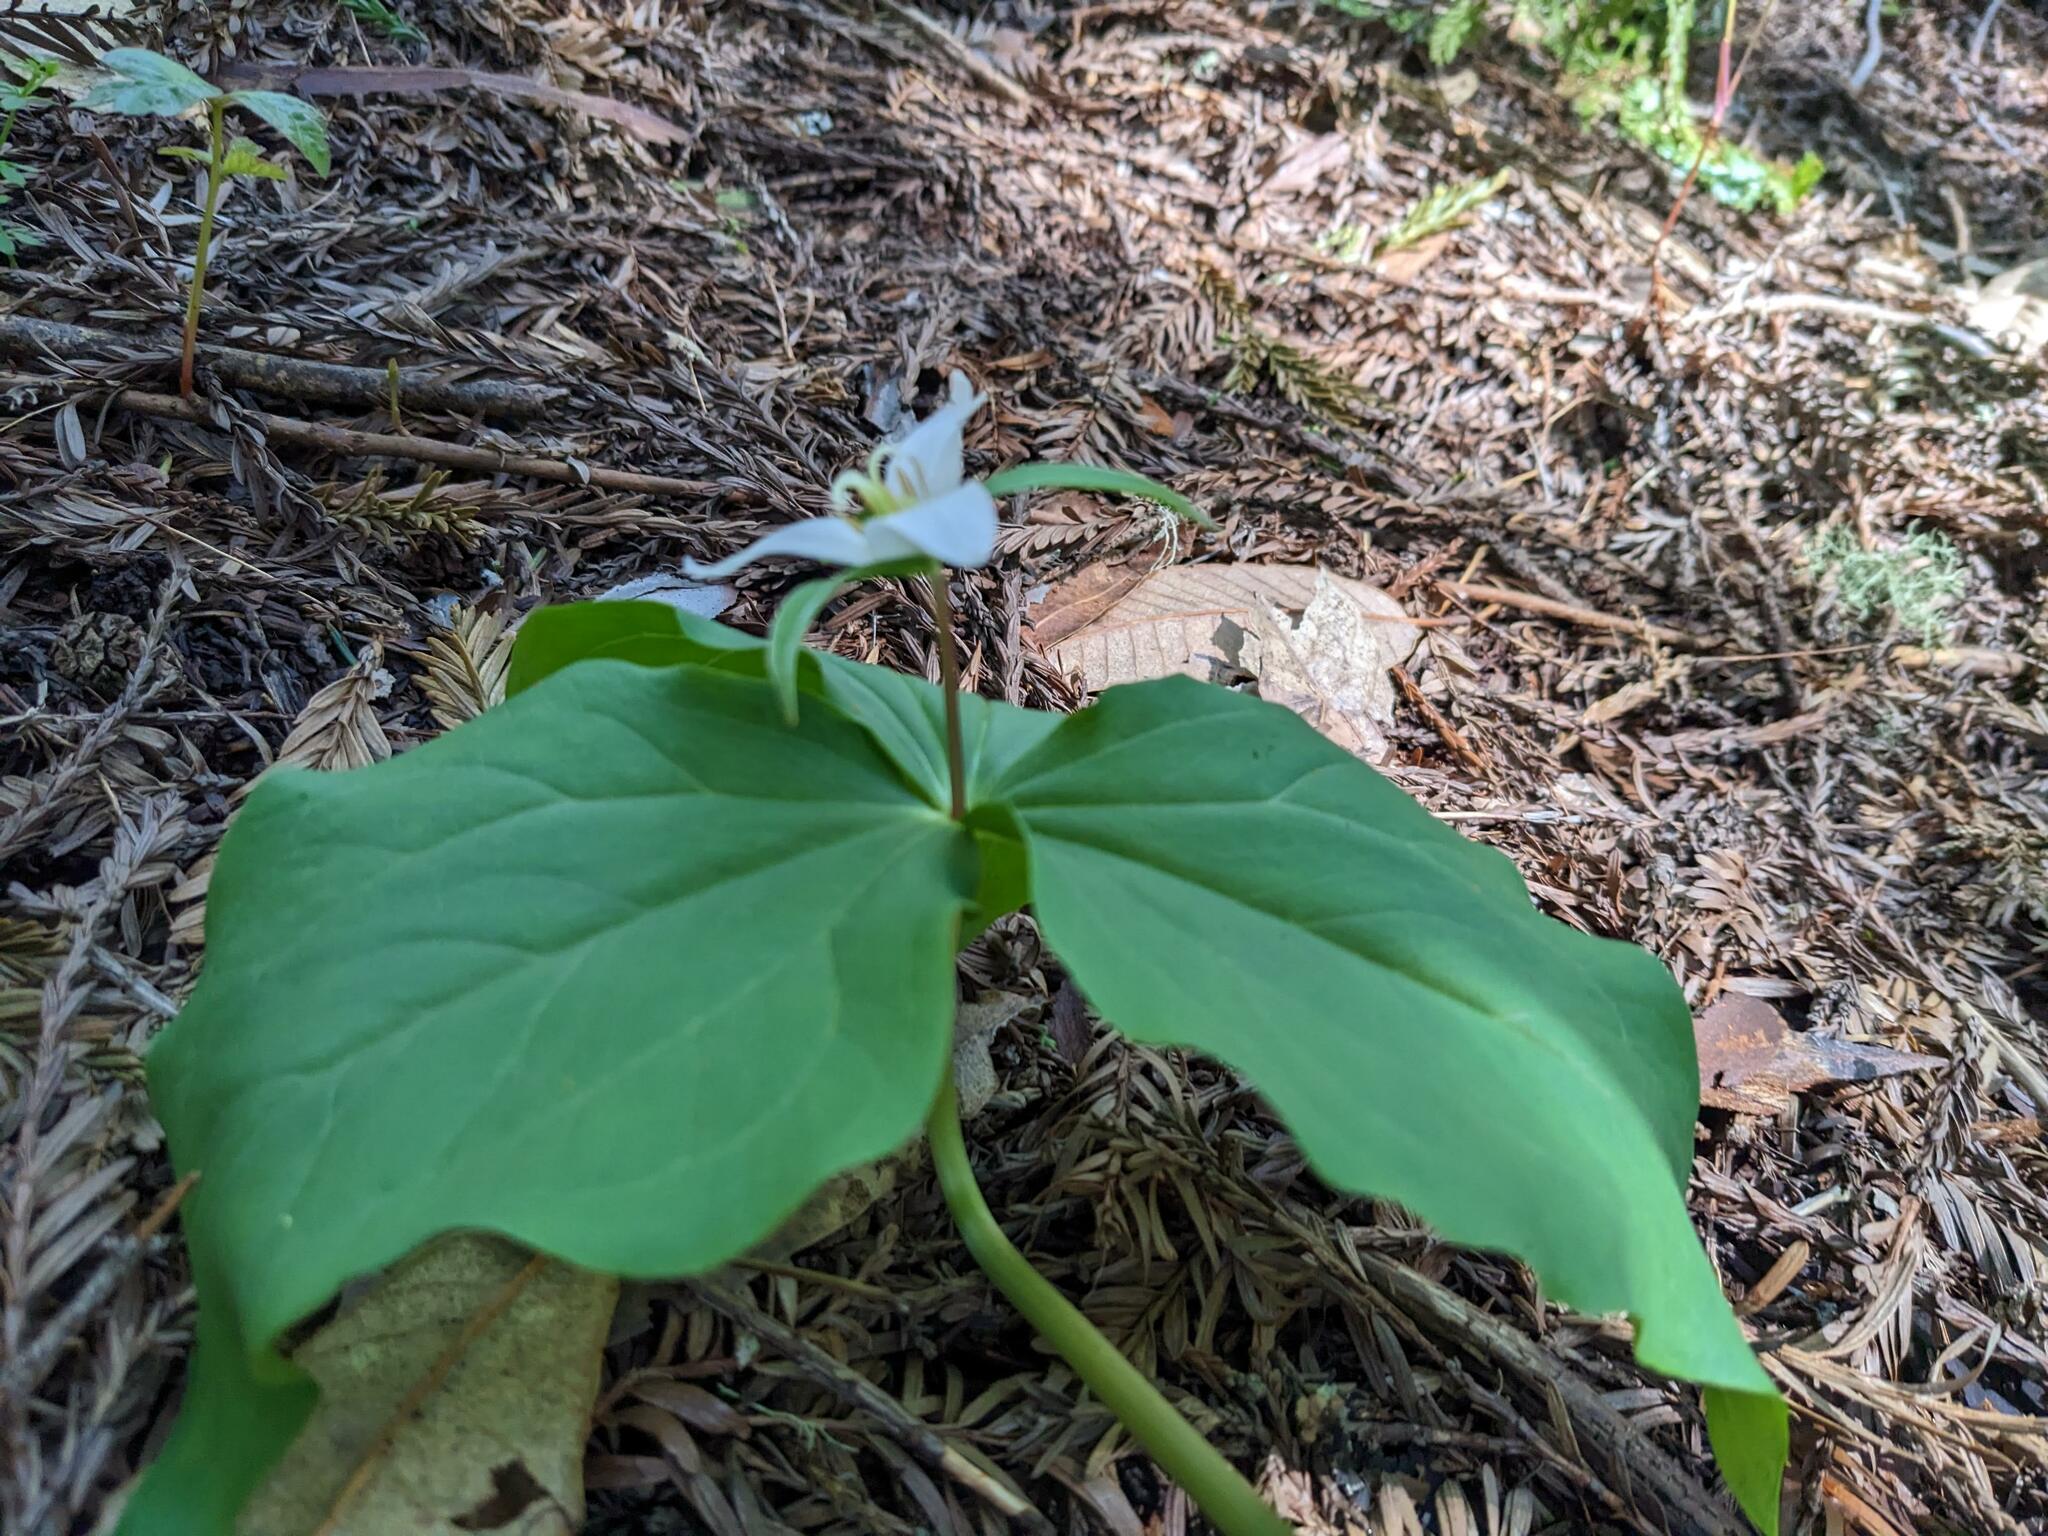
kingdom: Plantae
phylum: Tracheophyta
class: Liliopsida
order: Liliales
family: Melanthiaceae
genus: Trillium
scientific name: Trillium ovatum
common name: Pacific trillium
